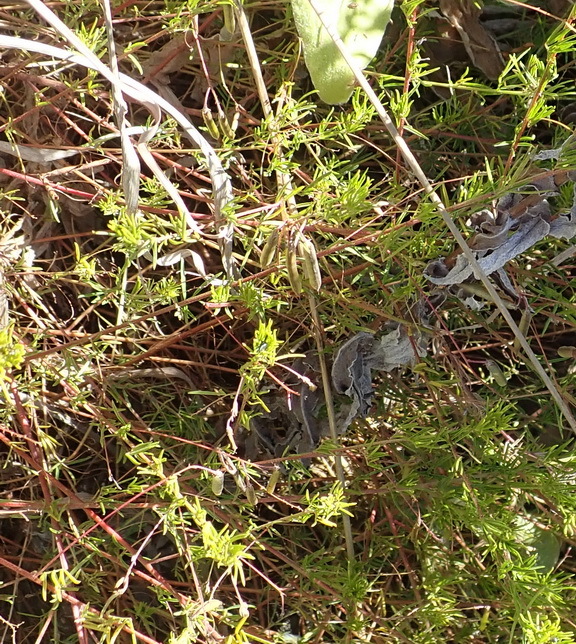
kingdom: Plantae
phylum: Tracheophyta
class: Magnoliopsida
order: Fabales
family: Fabaceae
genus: Indigofera
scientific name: Indigofera verrucosa
